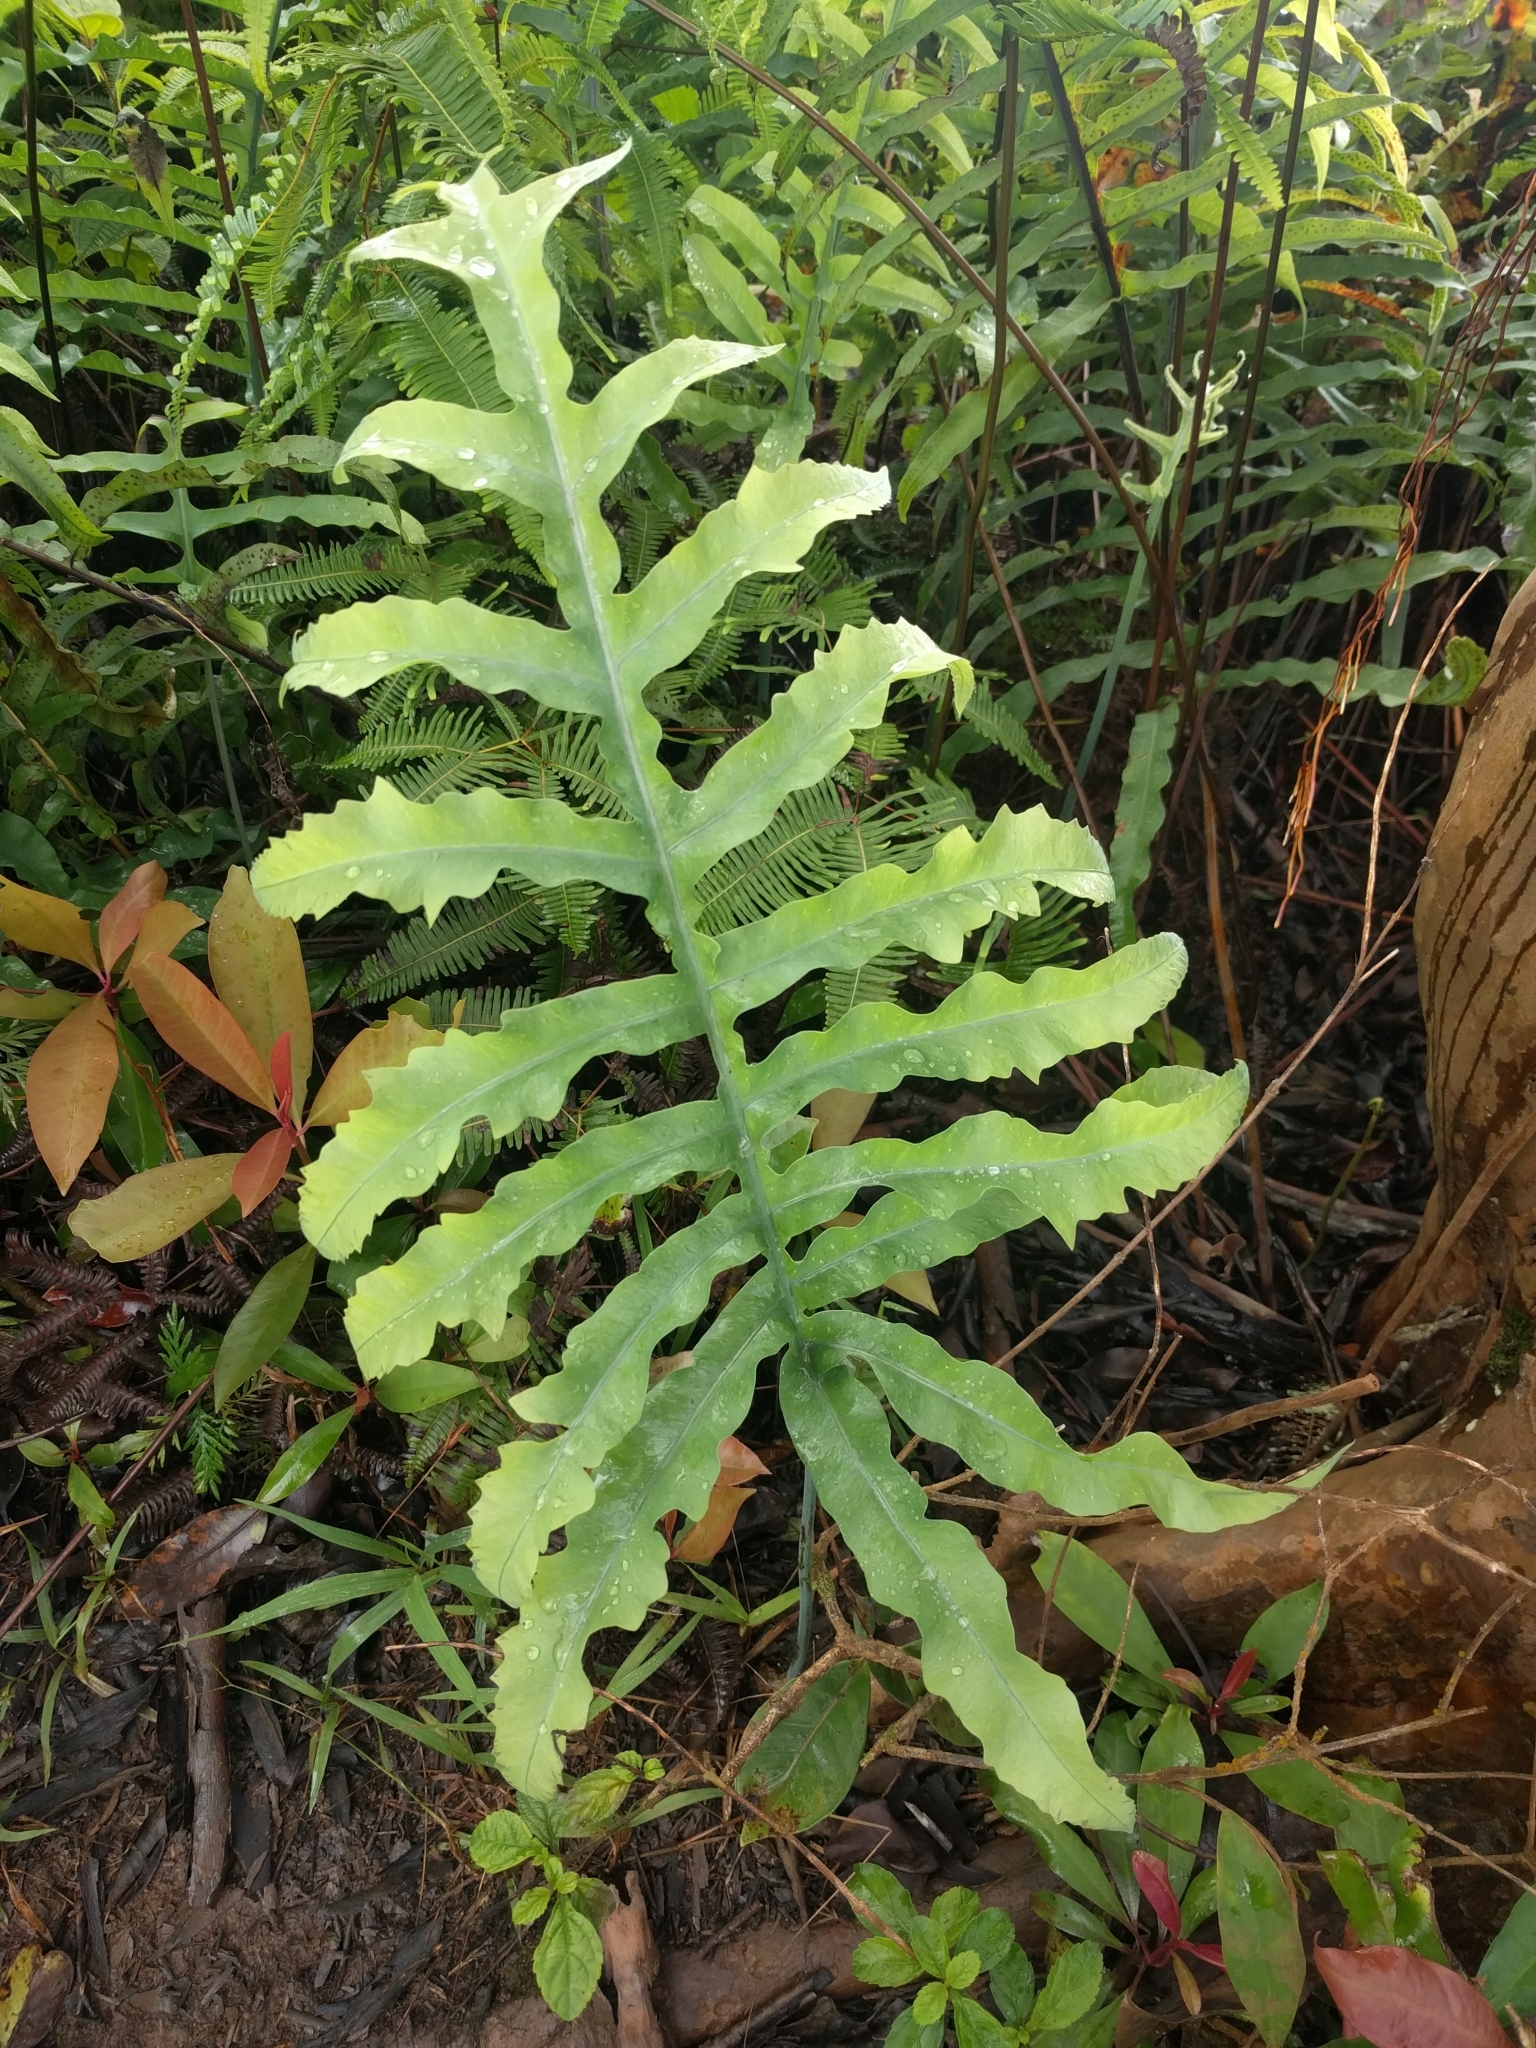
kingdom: Plantae
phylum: Tracheophyta
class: Polypodiopsida
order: Polypodiales
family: Polypodiaceae
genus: Phlebodium
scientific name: Phlebodium aureum
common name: Gold-foot fern
